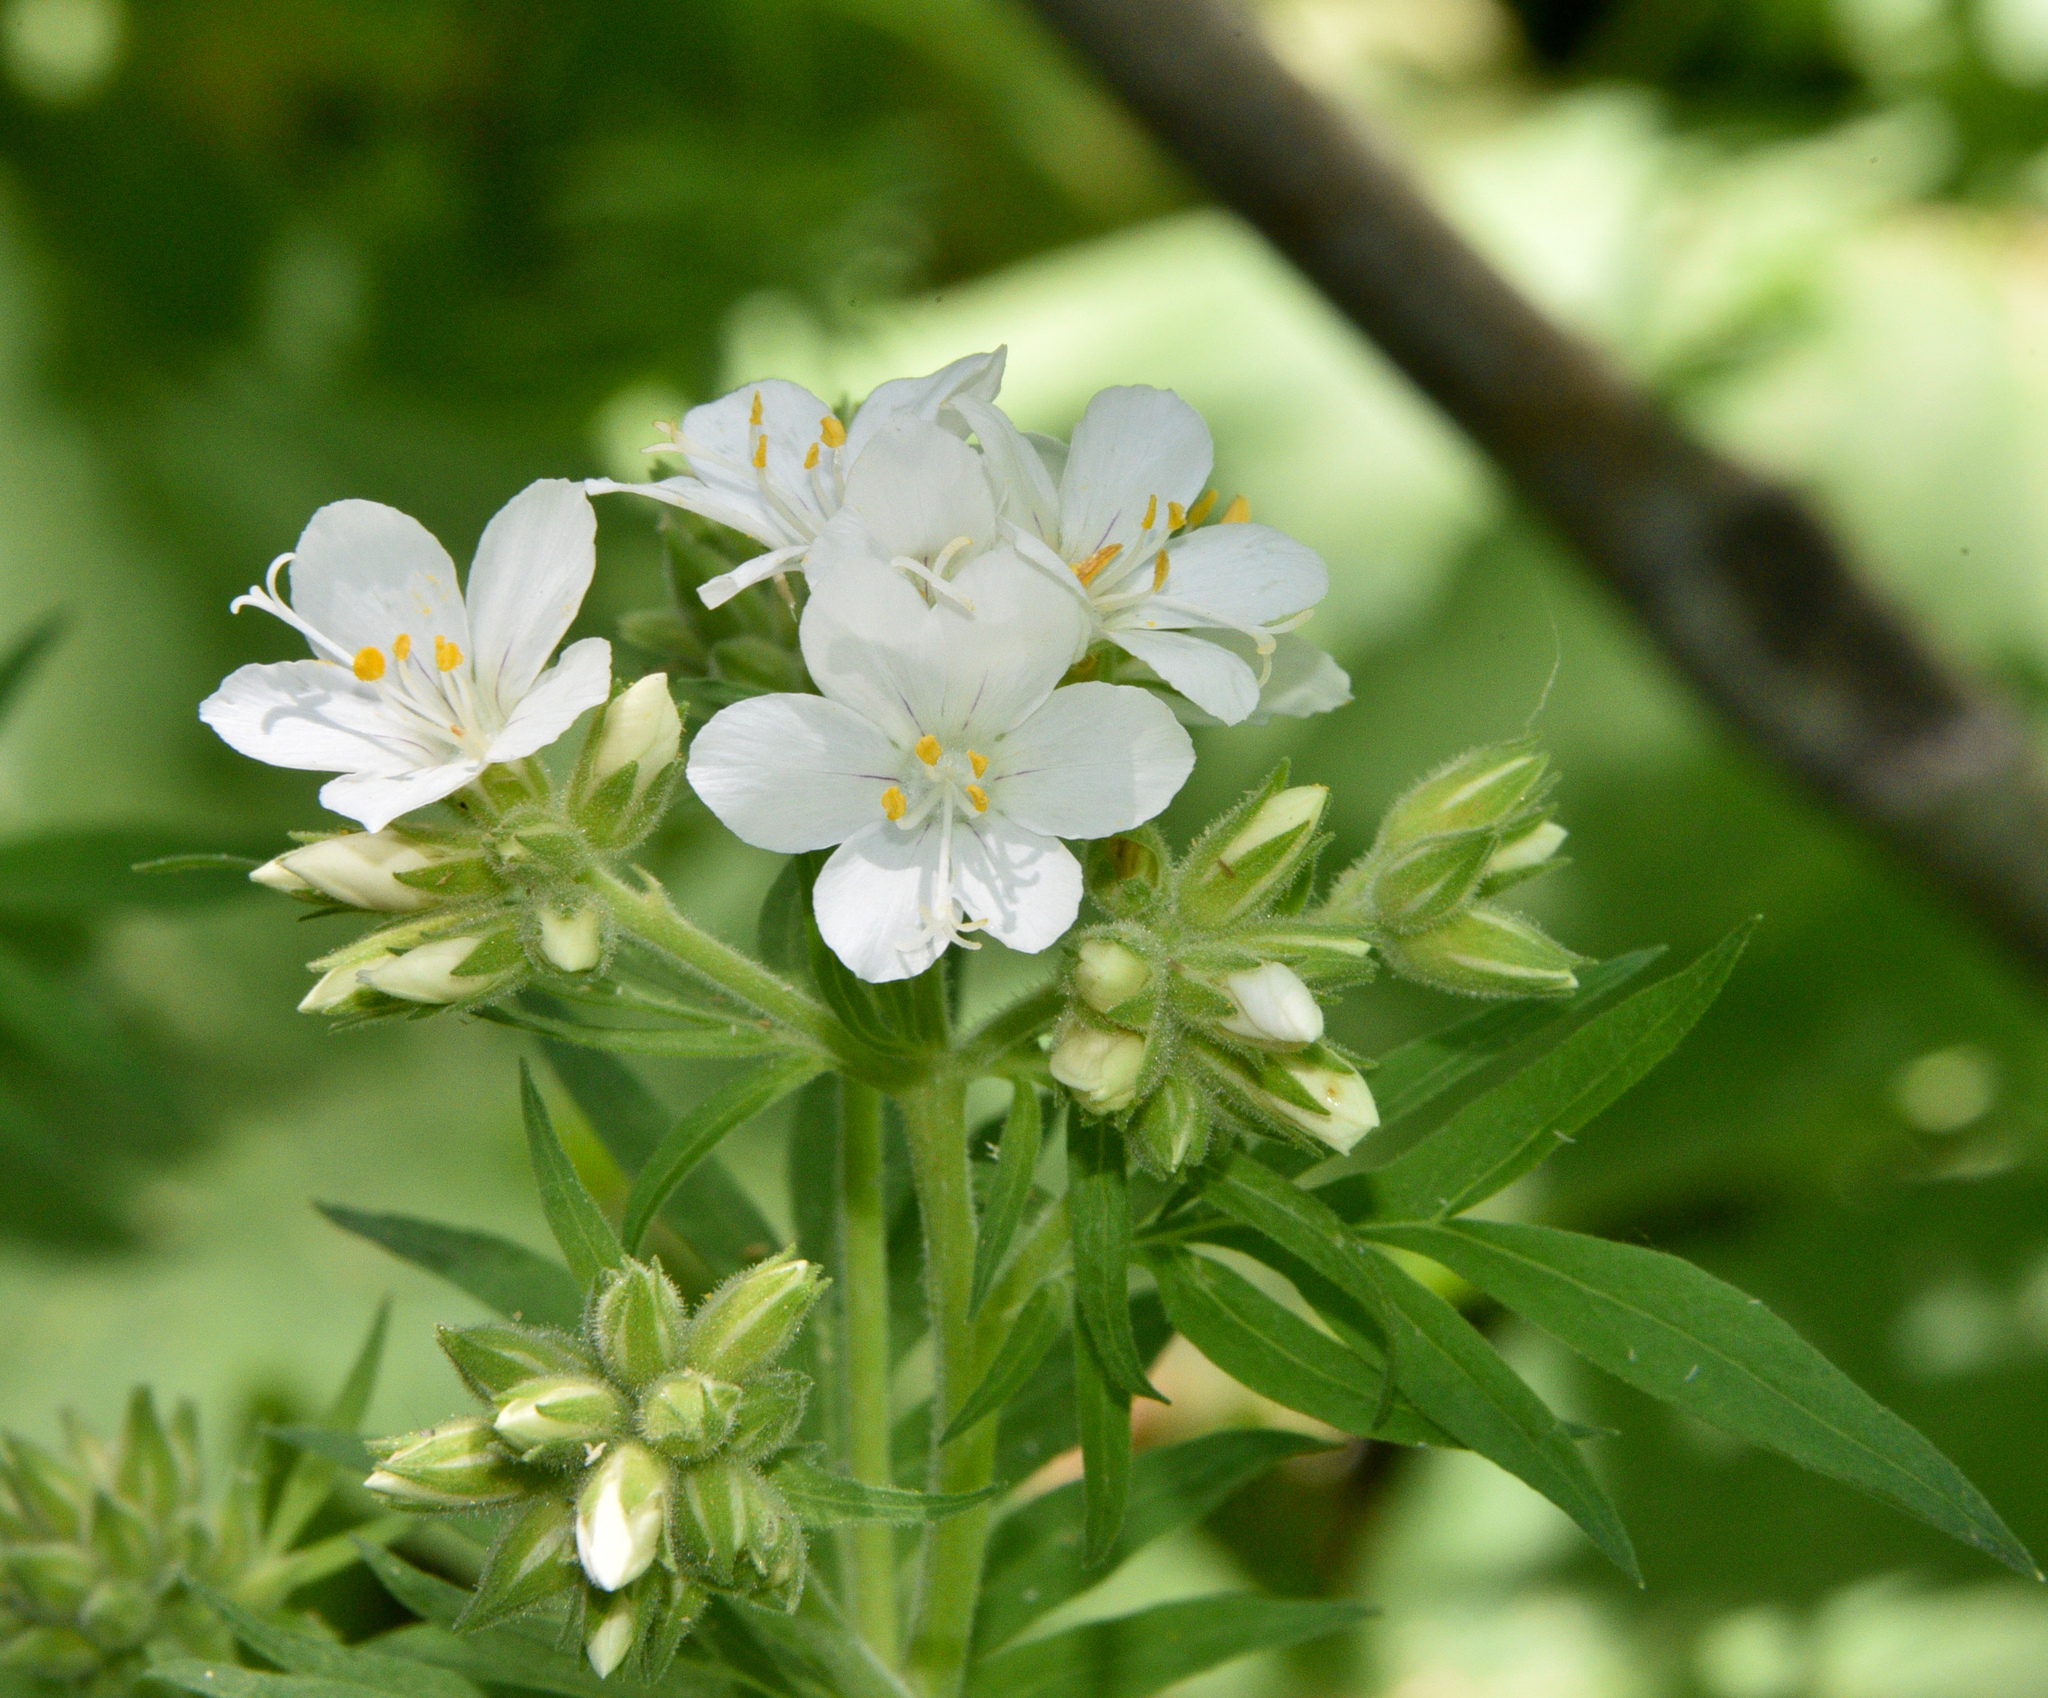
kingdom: Plantae
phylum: Tracheophyta
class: Magnoliopsida
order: Ericales
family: Polemoniaceae
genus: Polemonium
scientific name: Polemonium foliosissimum
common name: Leafy jacob's-ladder
